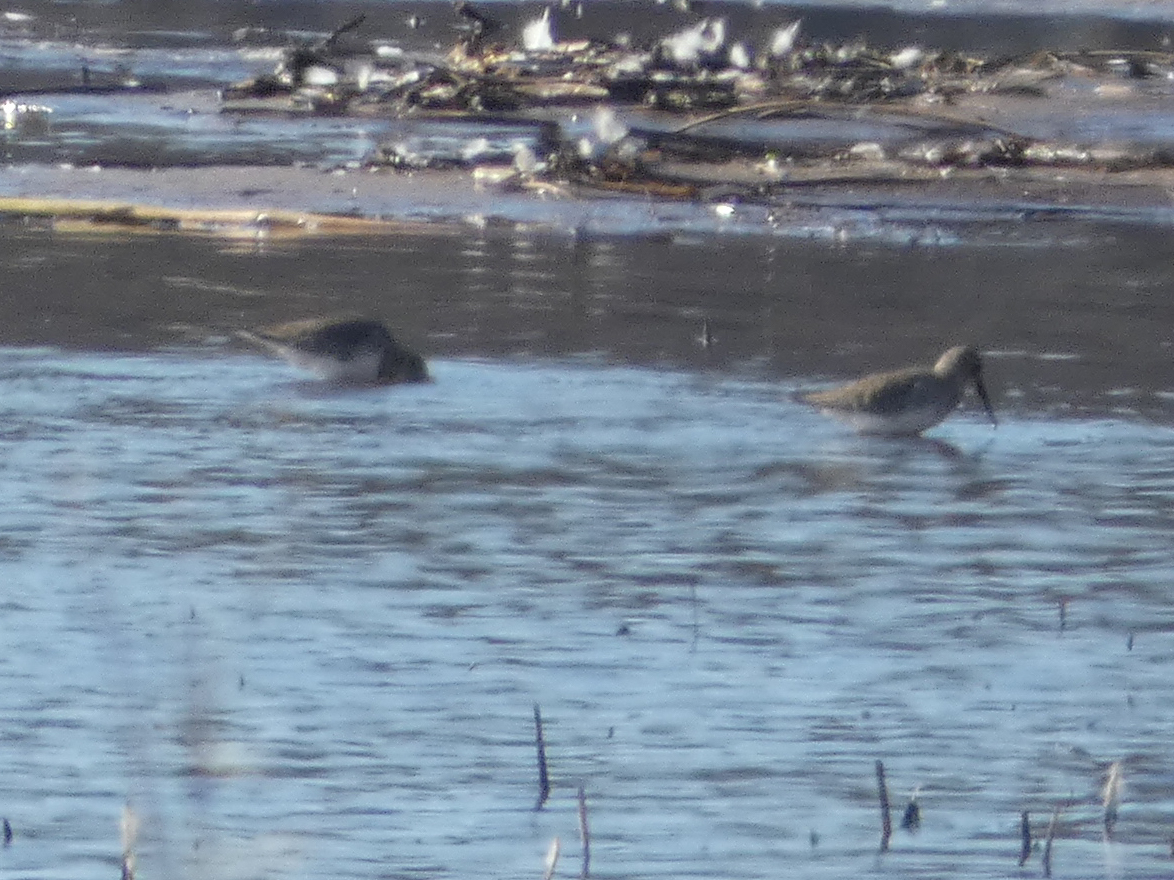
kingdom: Animalia
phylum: Chordata
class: Aves
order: Charadriiformes
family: Scolopacidae
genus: Calidris
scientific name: Calidris alpina
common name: Dunlin
